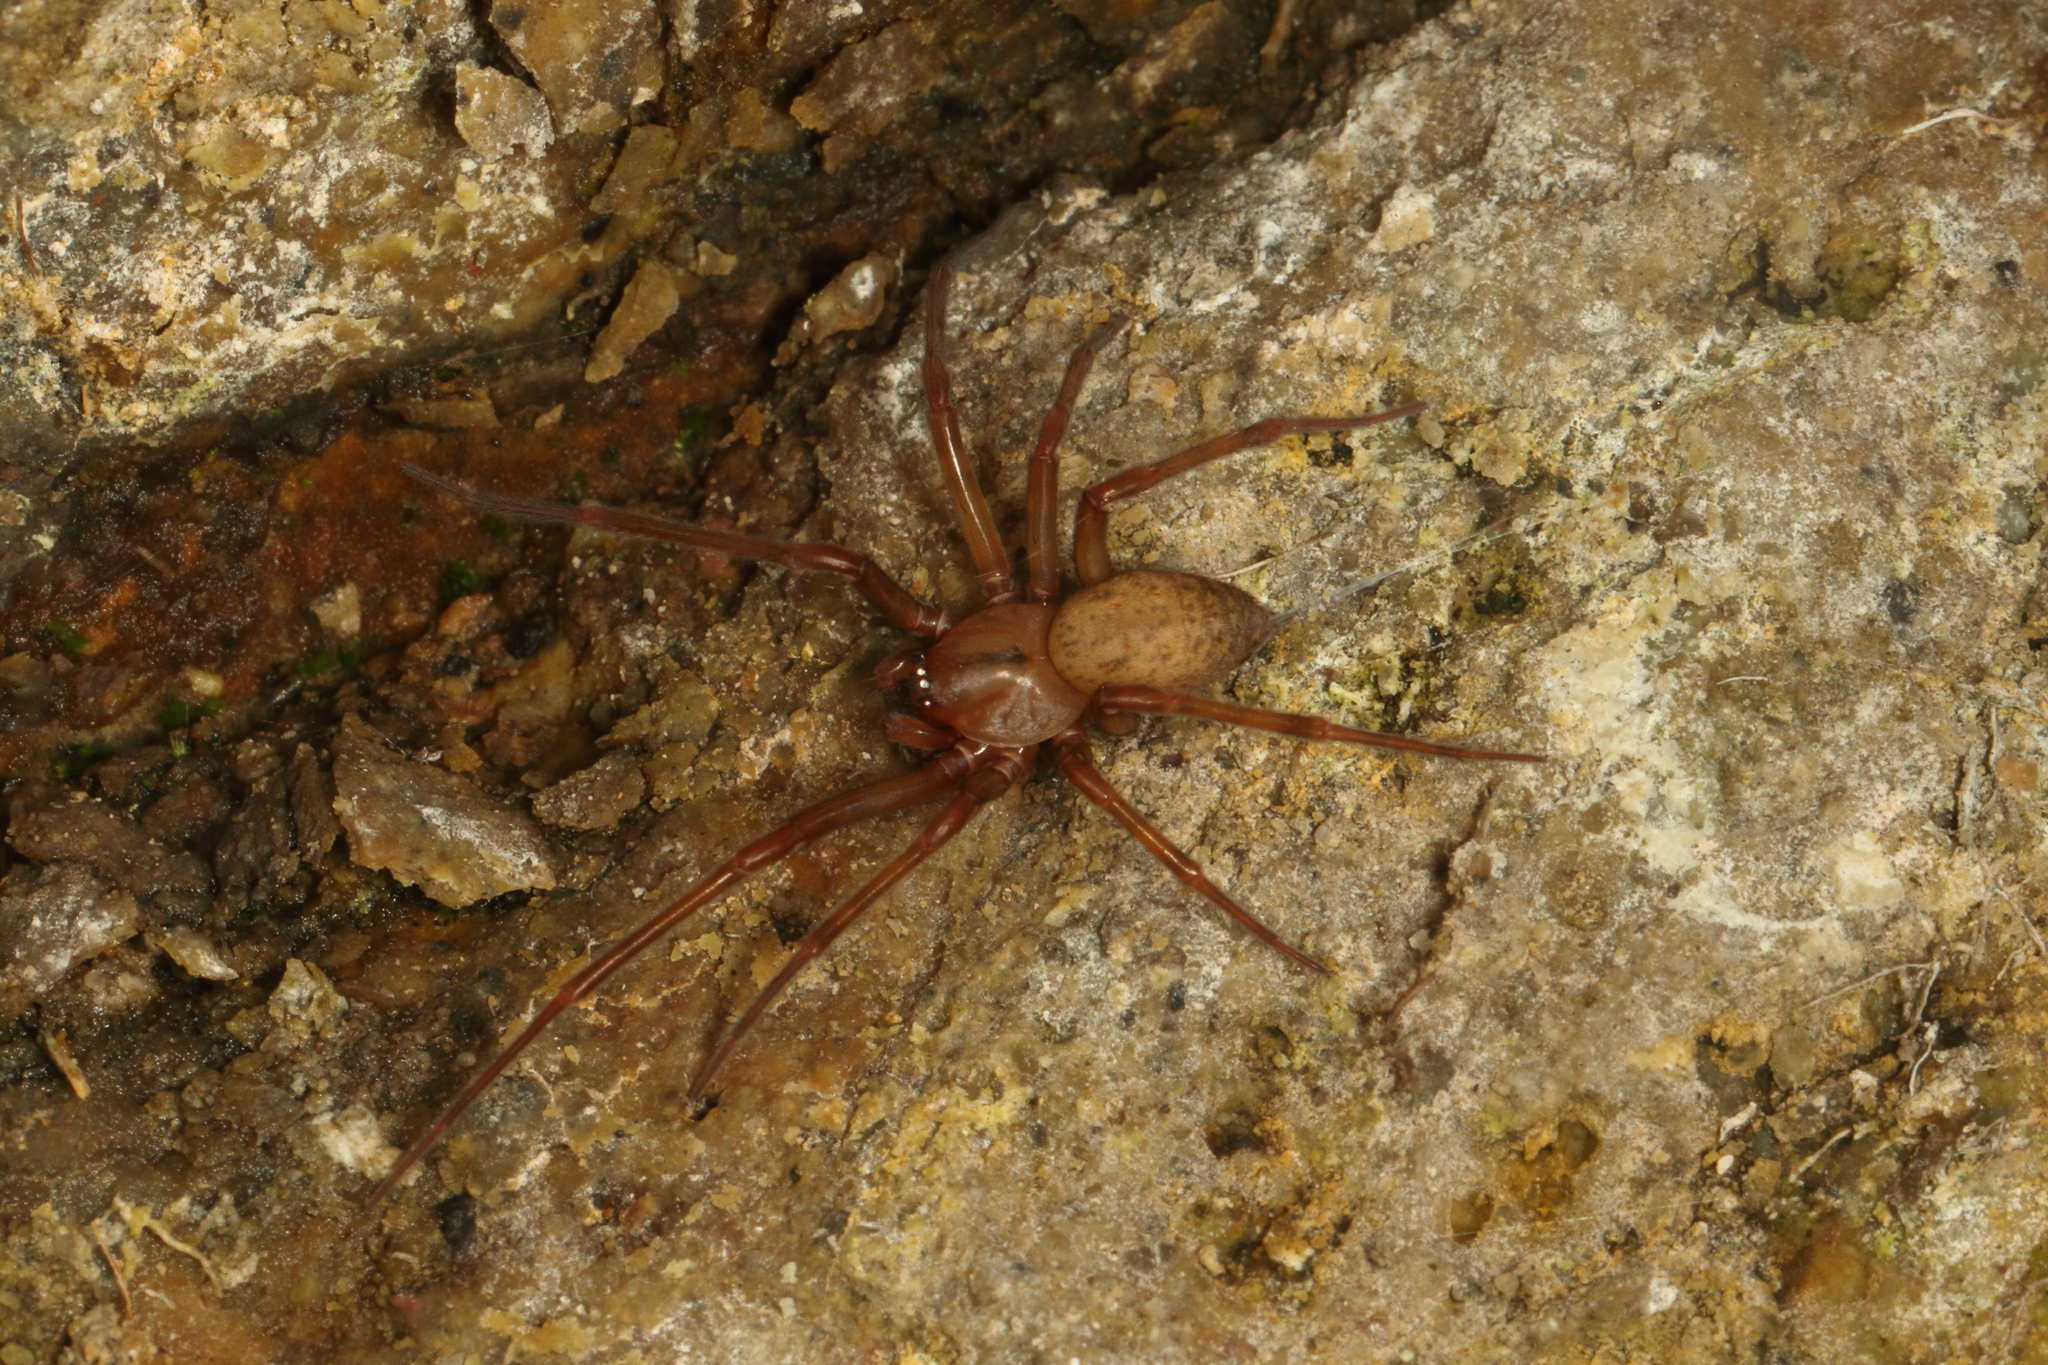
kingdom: Animalia
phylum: Arthropoda
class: Arachnida
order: Araneae
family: Megadictynidae
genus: Megadictyna
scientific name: Megadictyna thilenii
